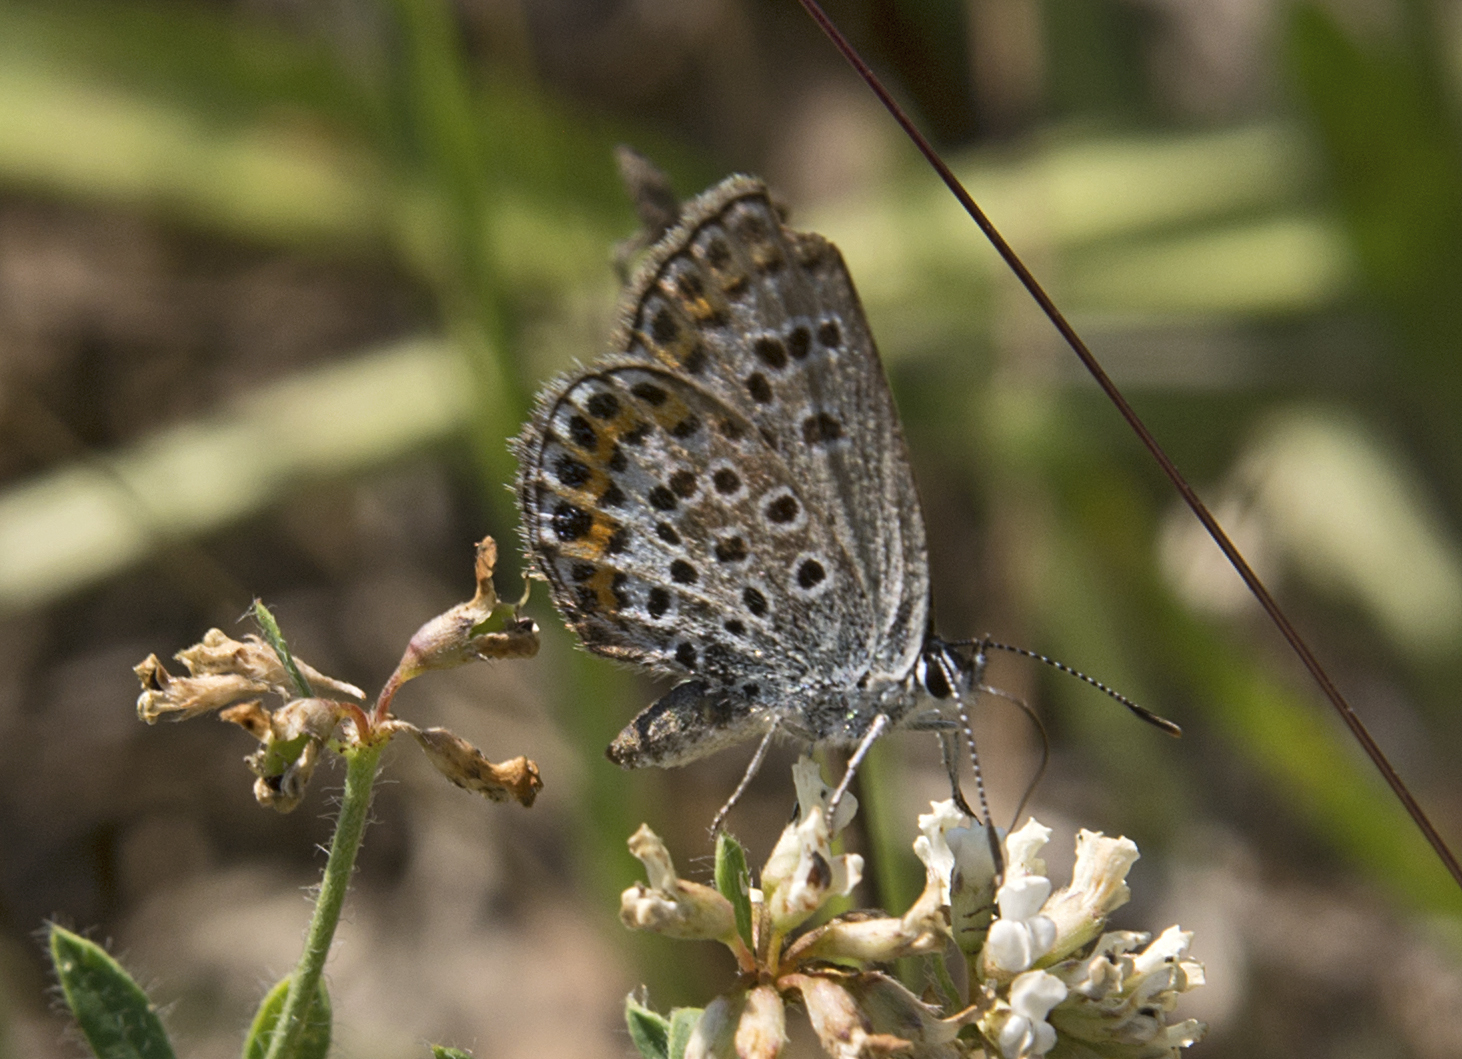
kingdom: Animalia
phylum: Arthropoda
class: Insecta
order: Lepidoptera
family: Lycaenidae
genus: Plebejus
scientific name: Plebejus argus
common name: Silver-studded blue
